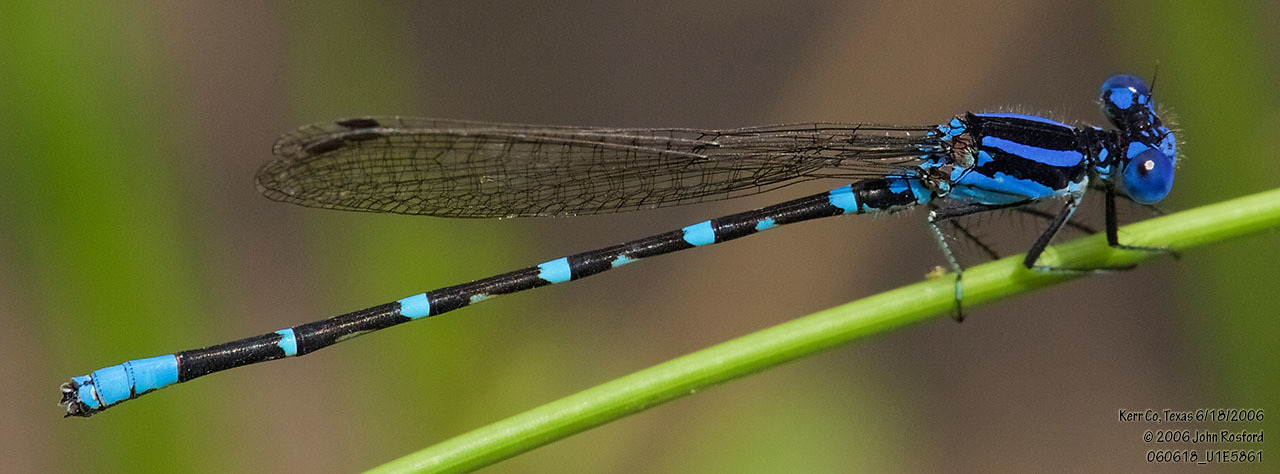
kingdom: Animalia
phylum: Arthropoda
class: Insecta
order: Odonata
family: Coenagrionidae
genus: Argia
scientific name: Argia sedula
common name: Blue-ringed dancer
